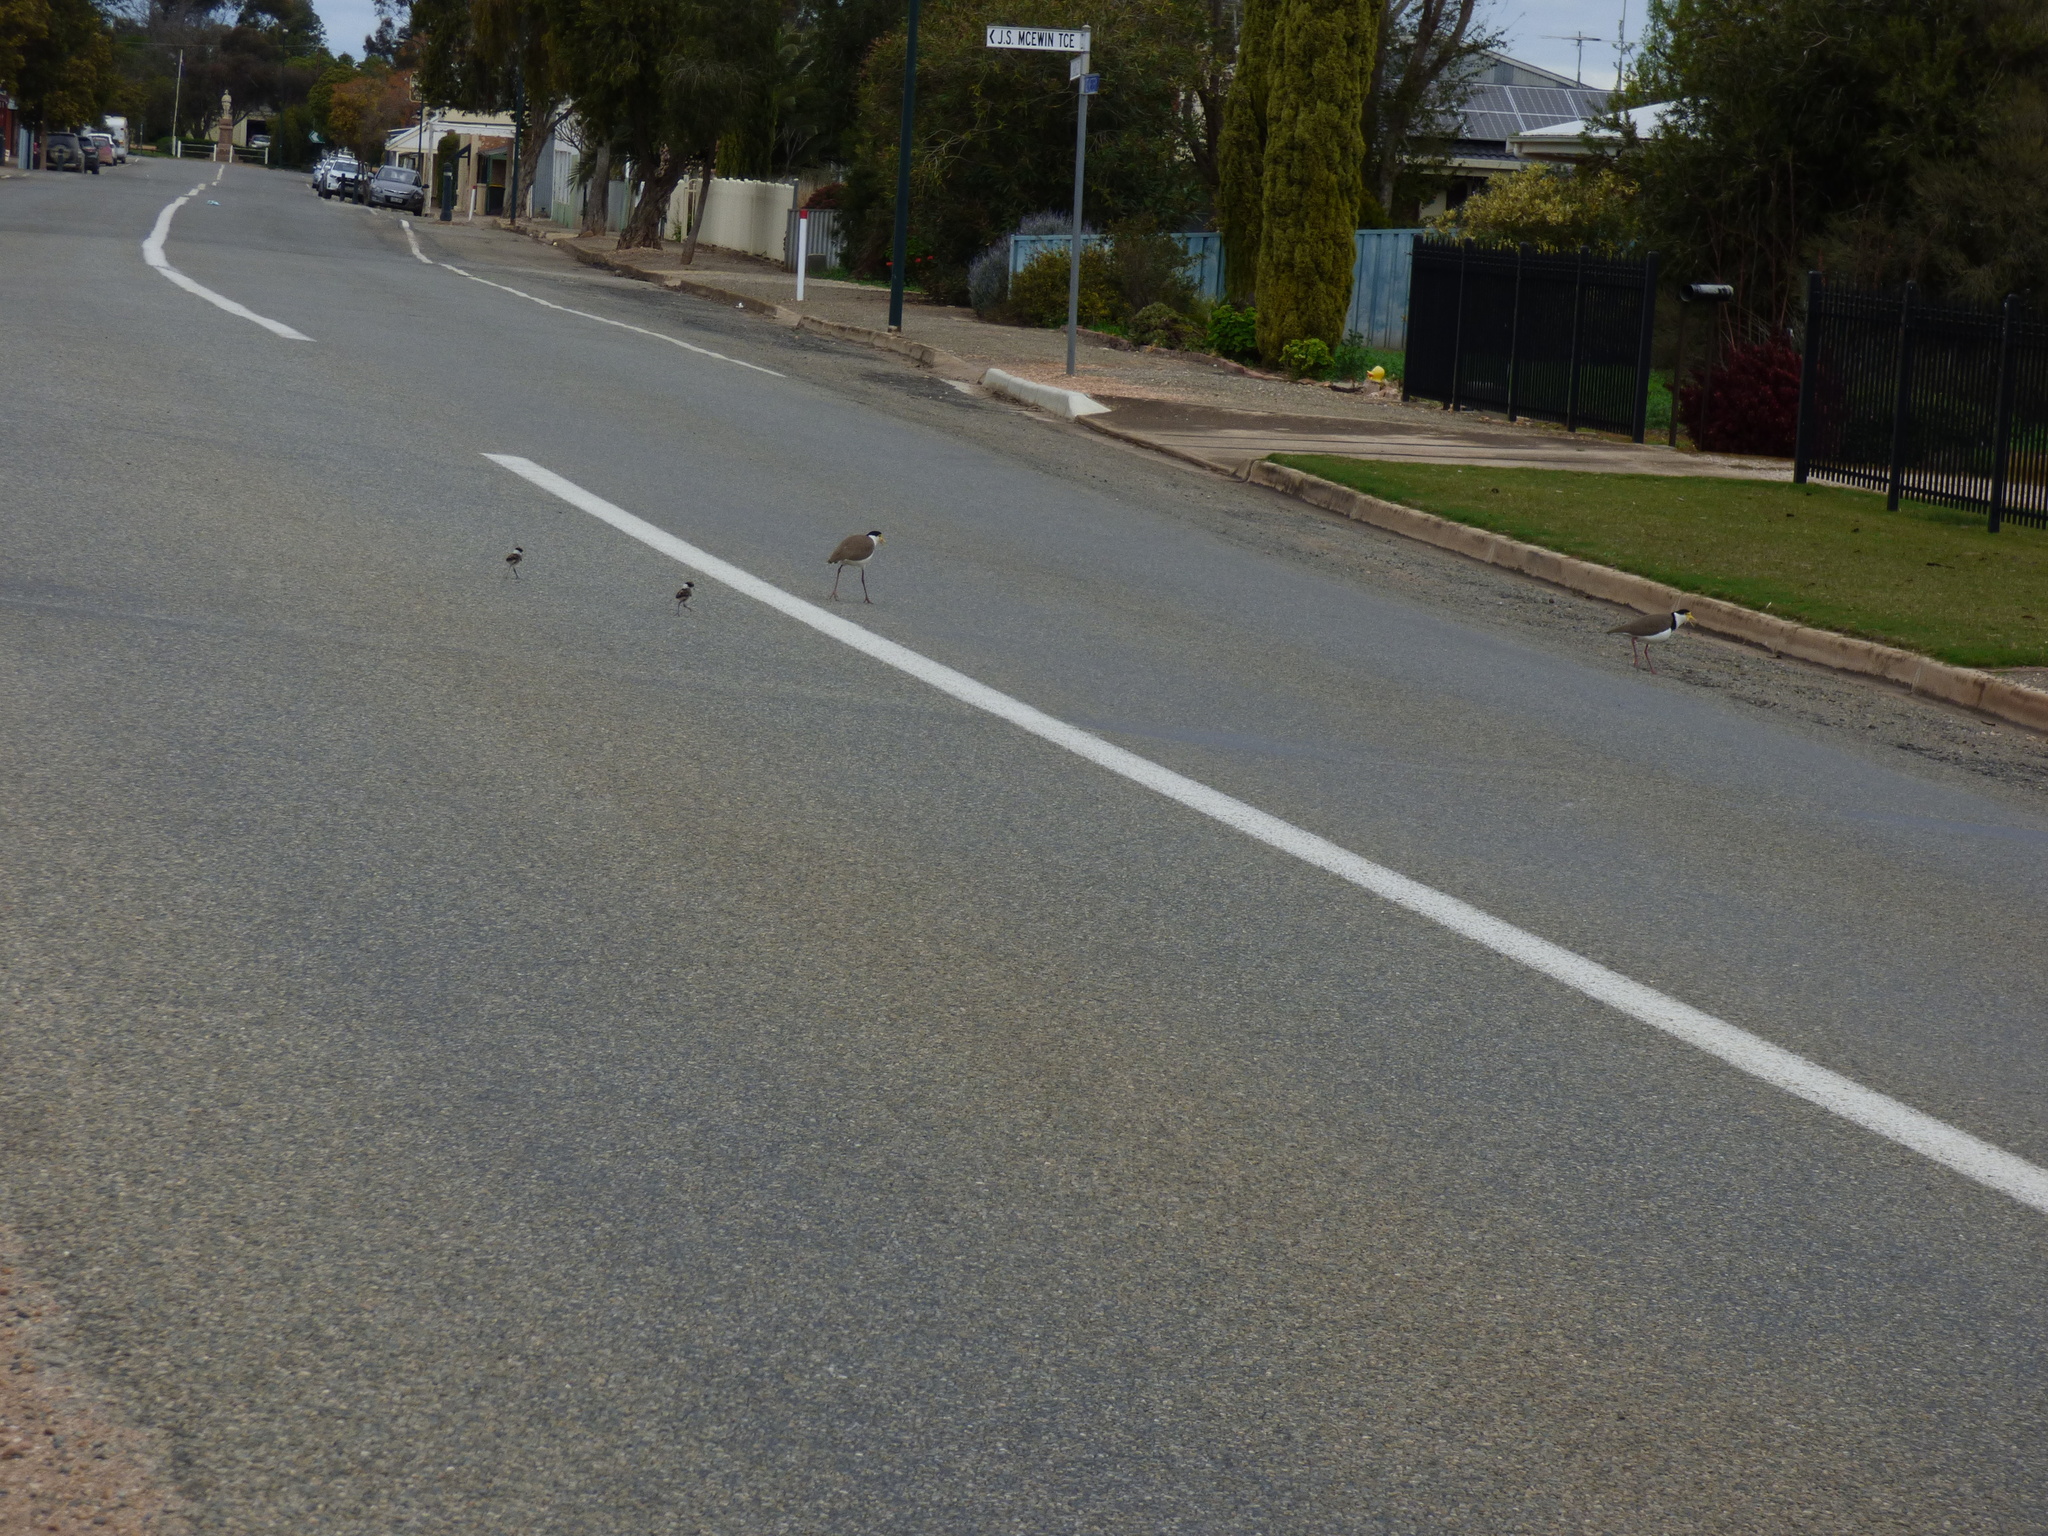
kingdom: Animalia
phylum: Chordata
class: Aves
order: Charadriiformes
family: Charadriidae
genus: Vanellus
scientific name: Vanellus miles
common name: Masked lapwing
